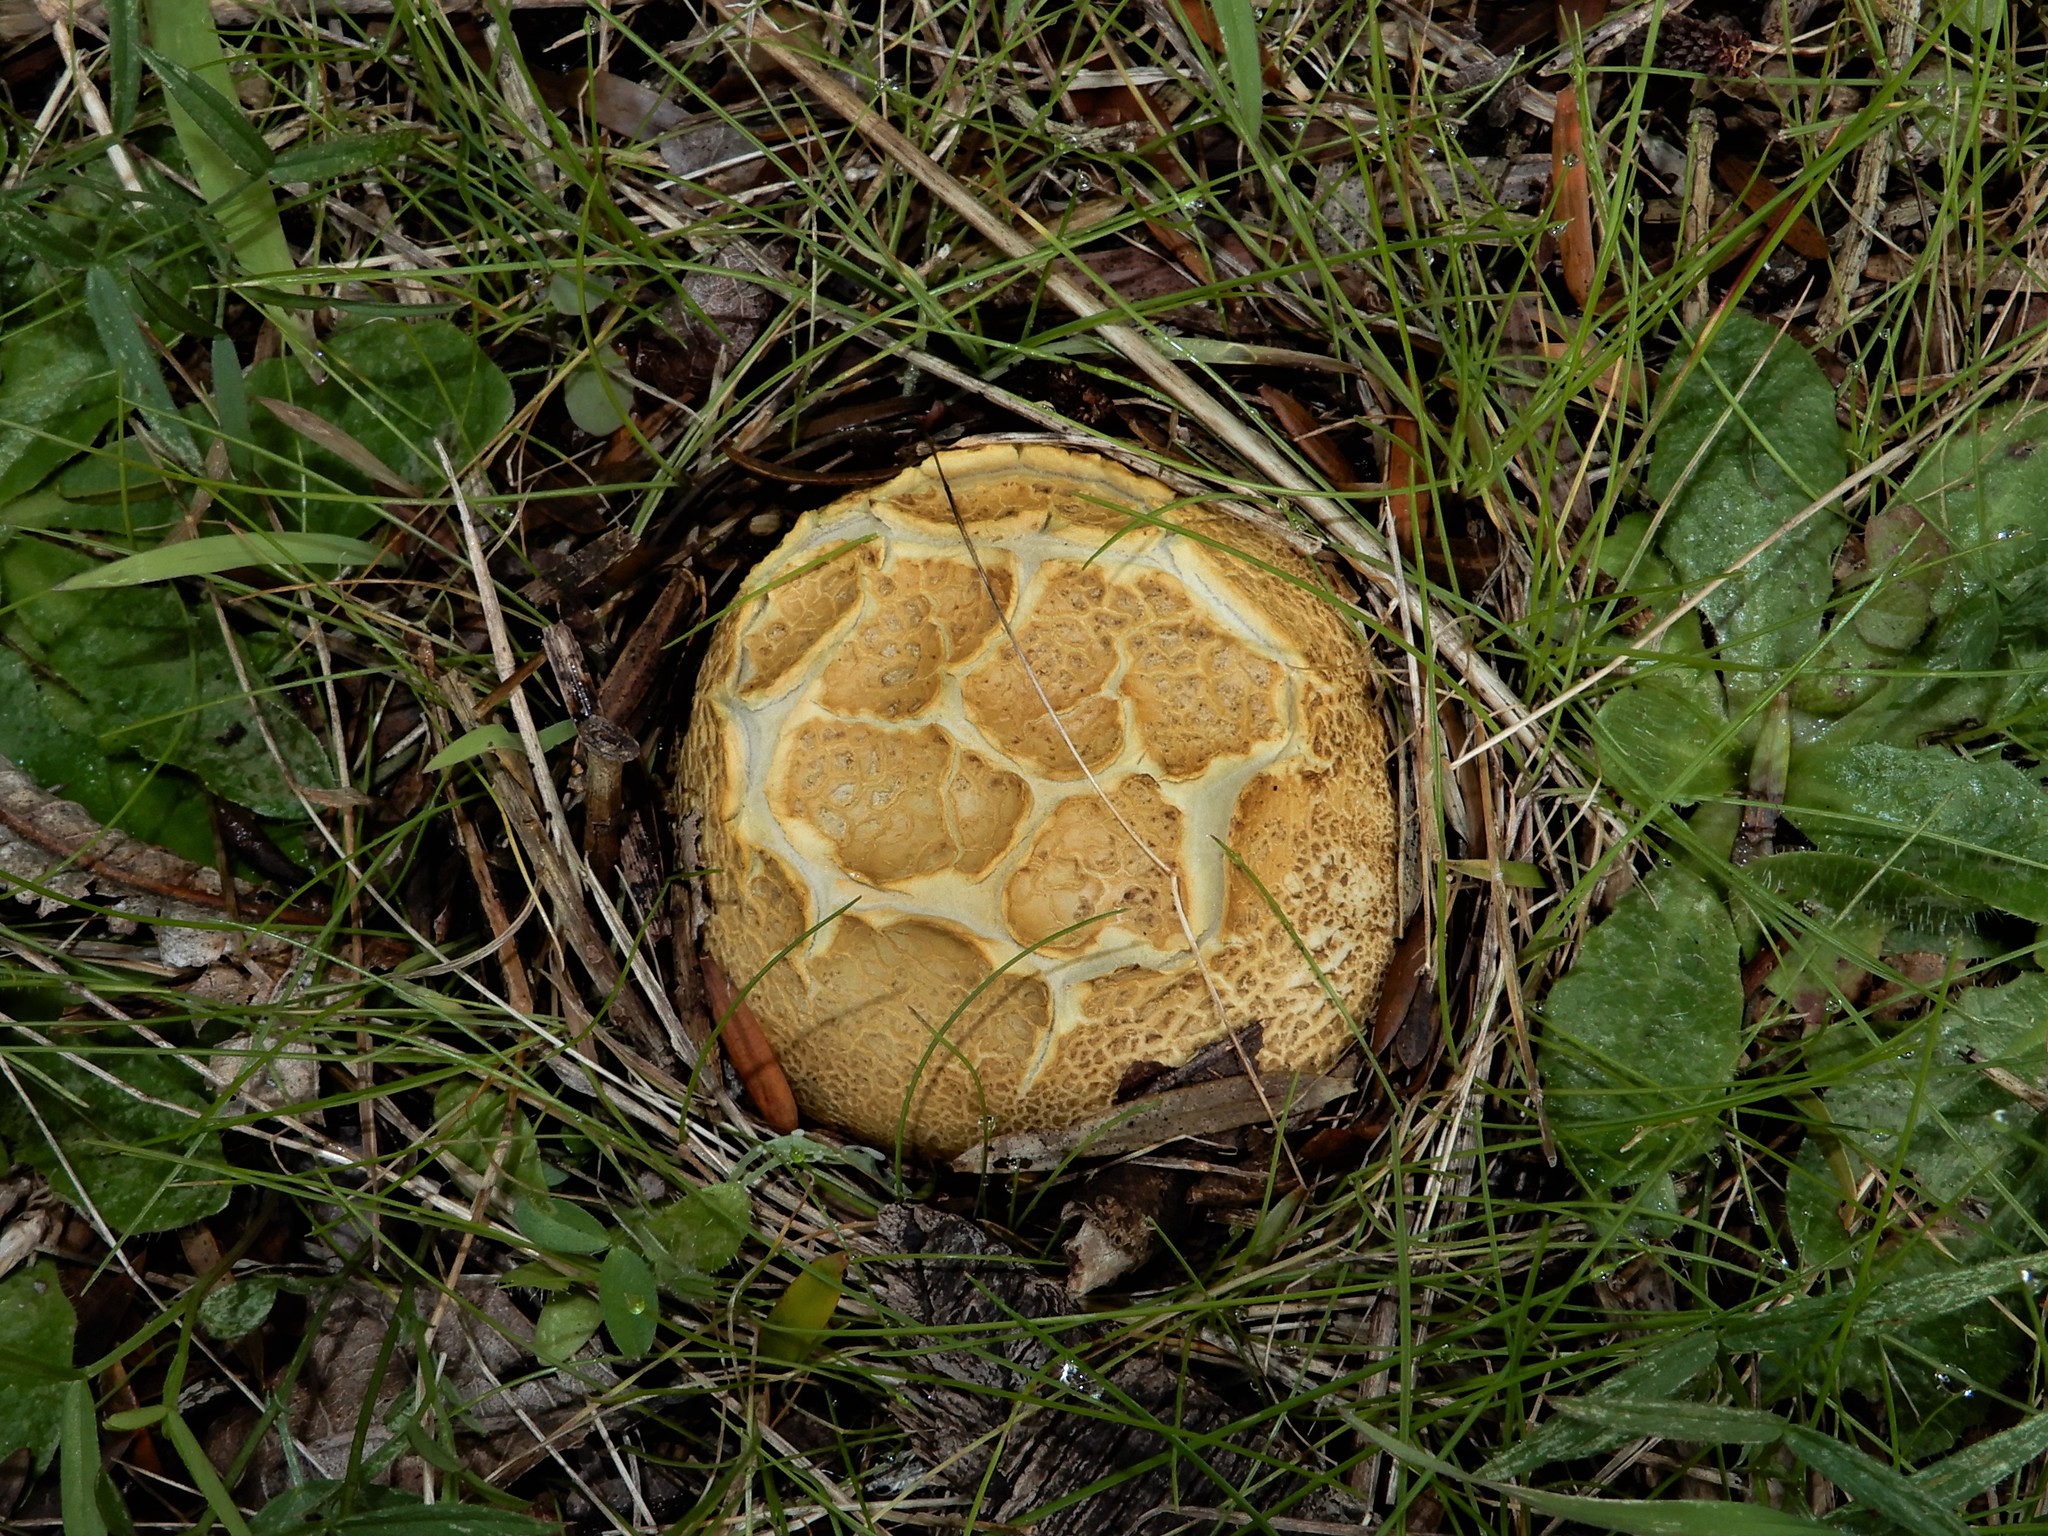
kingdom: Fungi
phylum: Basidiomycota
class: Agaricomycetes
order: Boletales
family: Sclerodermataceae
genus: Scleroderma
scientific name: Scleroderma
